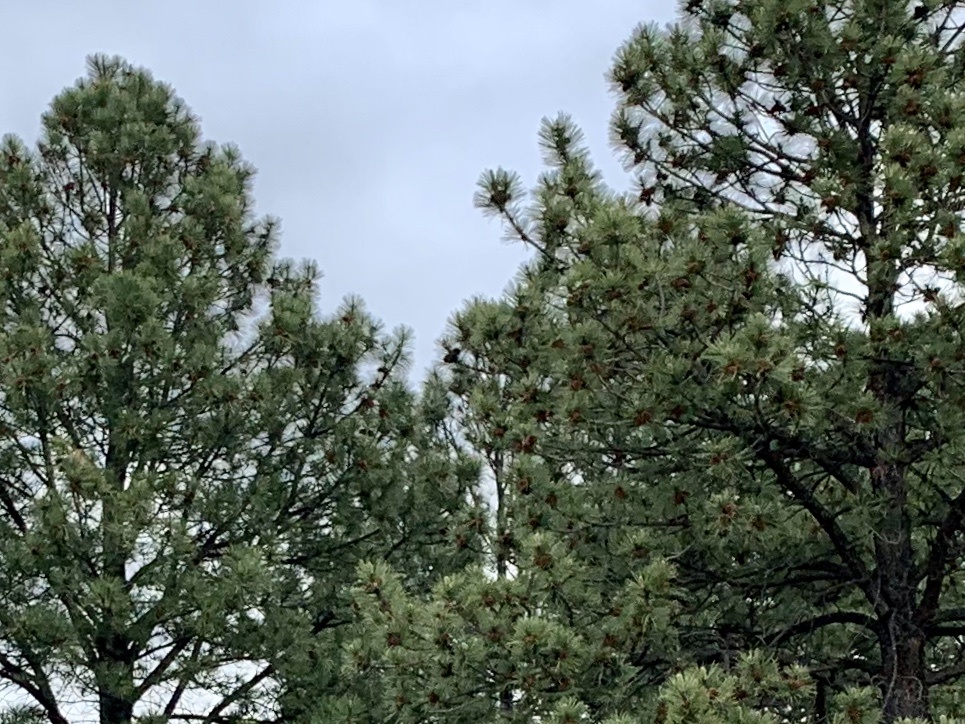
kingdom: Plantae
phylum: Tracheophyta
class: Pinopsida
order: Pinales
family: Pinaceae
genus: Pinus
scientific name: Pinus ponderosa
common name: Western yellow-pine
